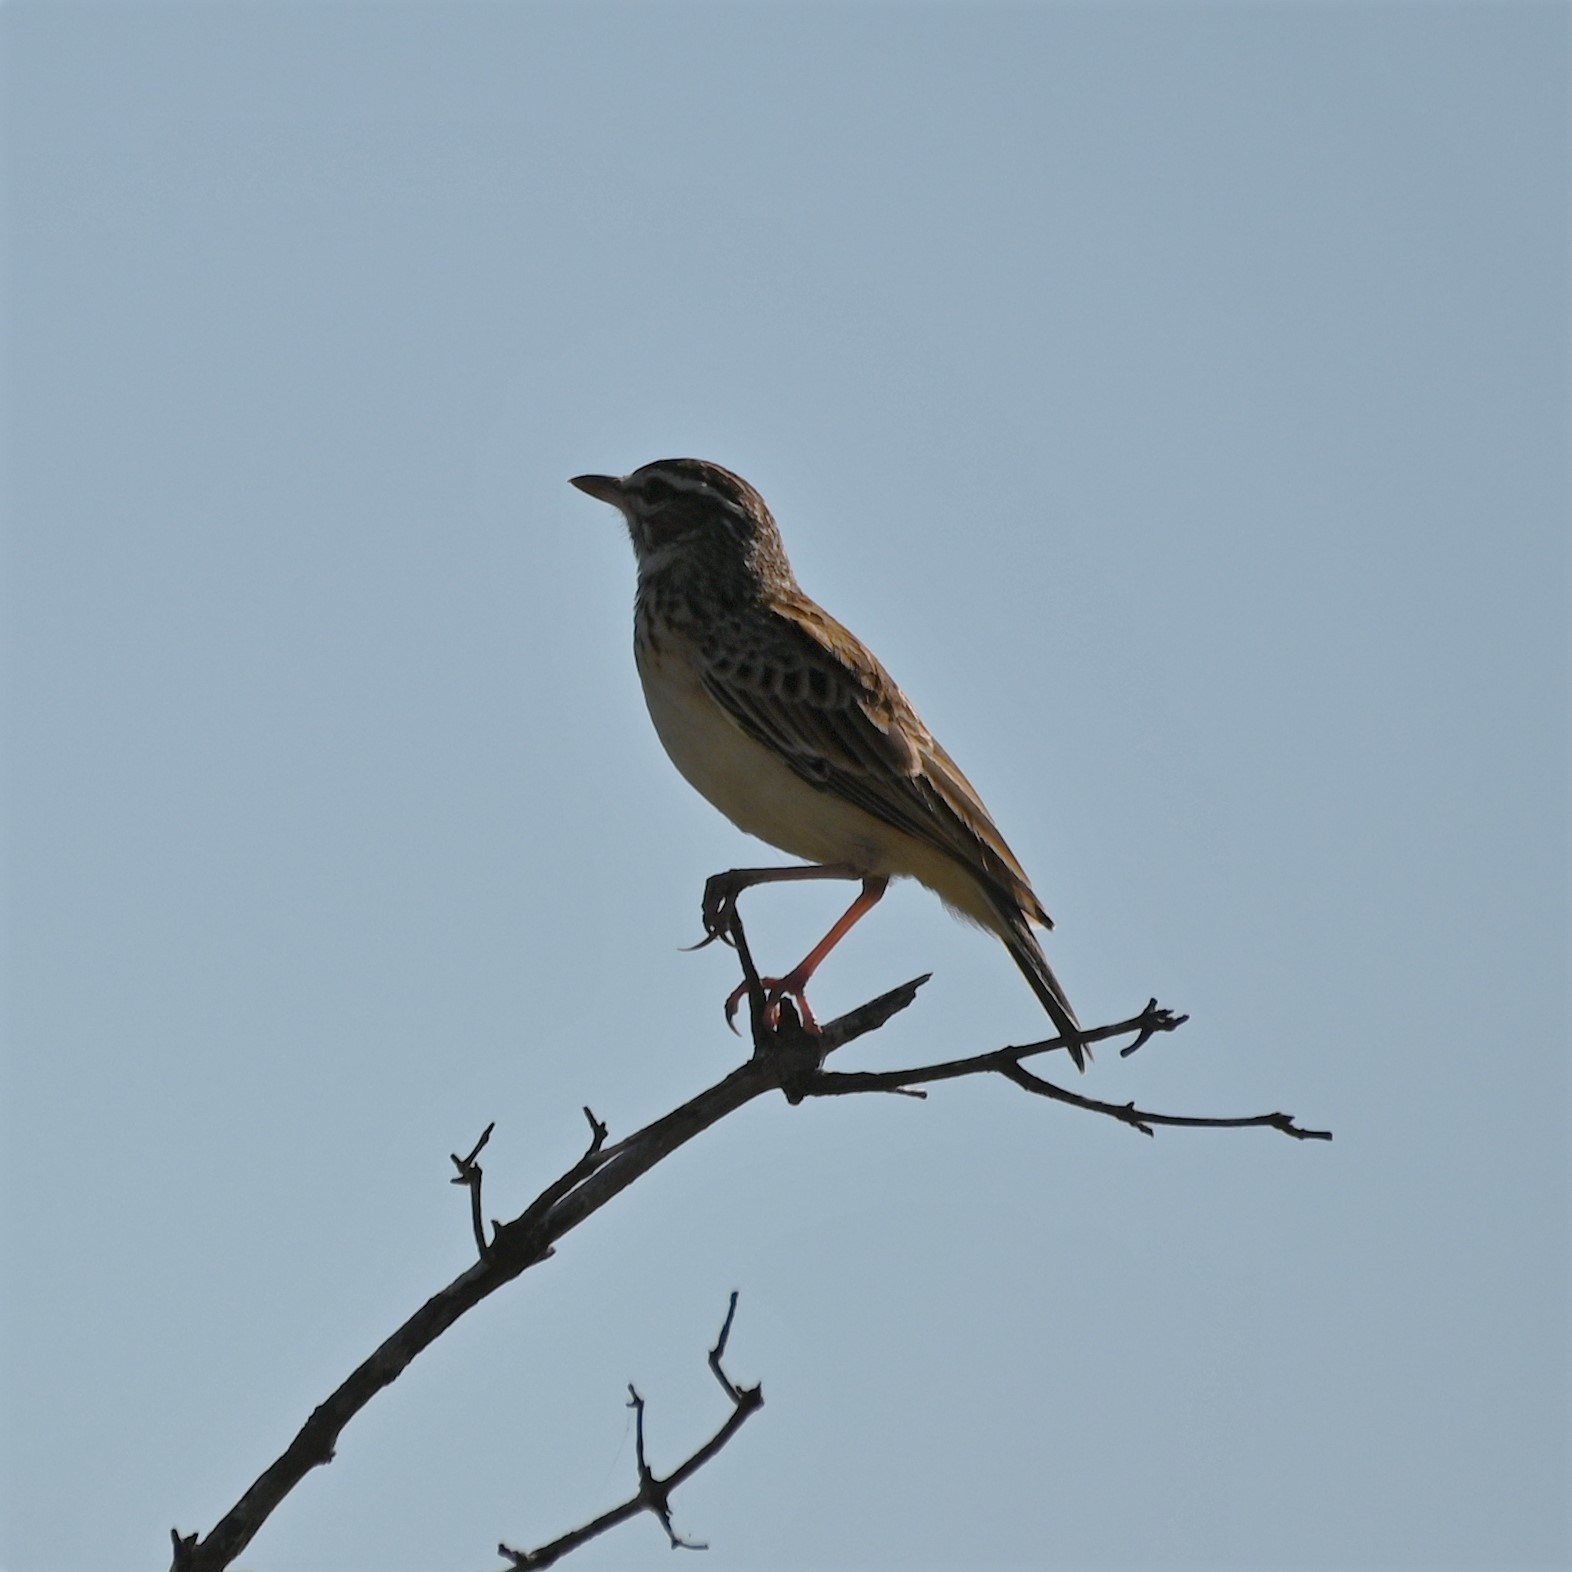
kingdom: Animalia
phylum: Chordata
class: Aves
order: Passeriformes
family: Alaudidae
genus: Calendulauda
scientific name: Calendulauda sabota
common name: Sabota lark
